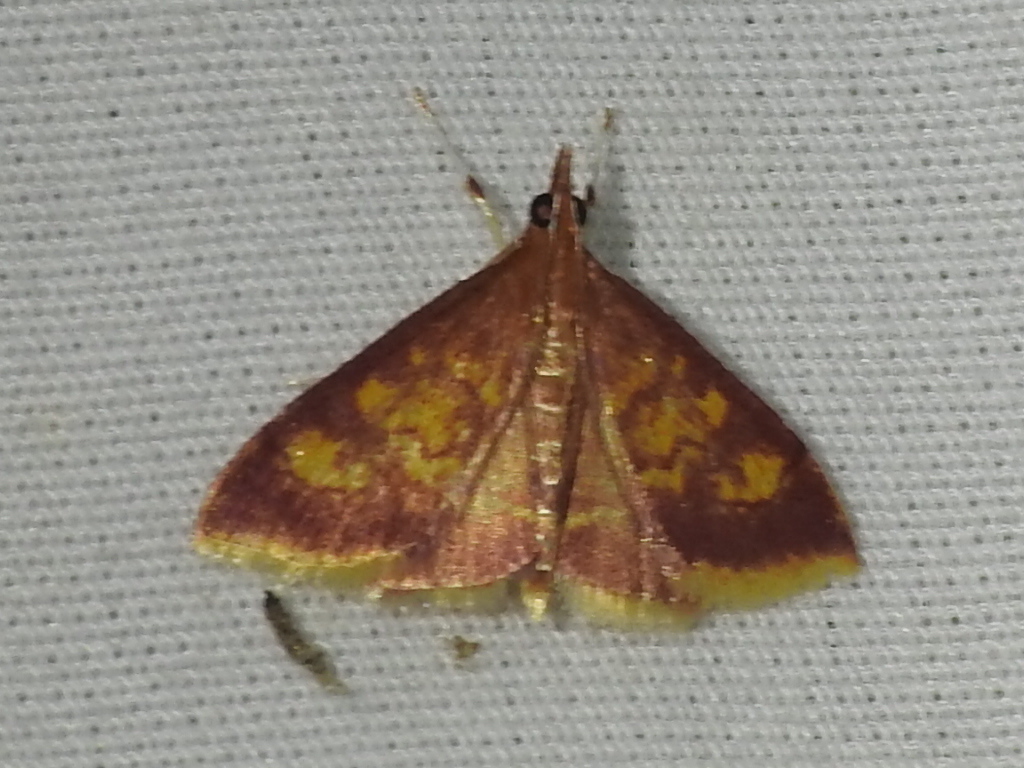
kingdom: Animalia
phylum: Arthropoda
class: Insecta
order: Lepidoptera
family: Crambidae
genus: Pyrausta
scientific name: Pyrausta acrionalis
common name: Mint-loving pyrausta moth
